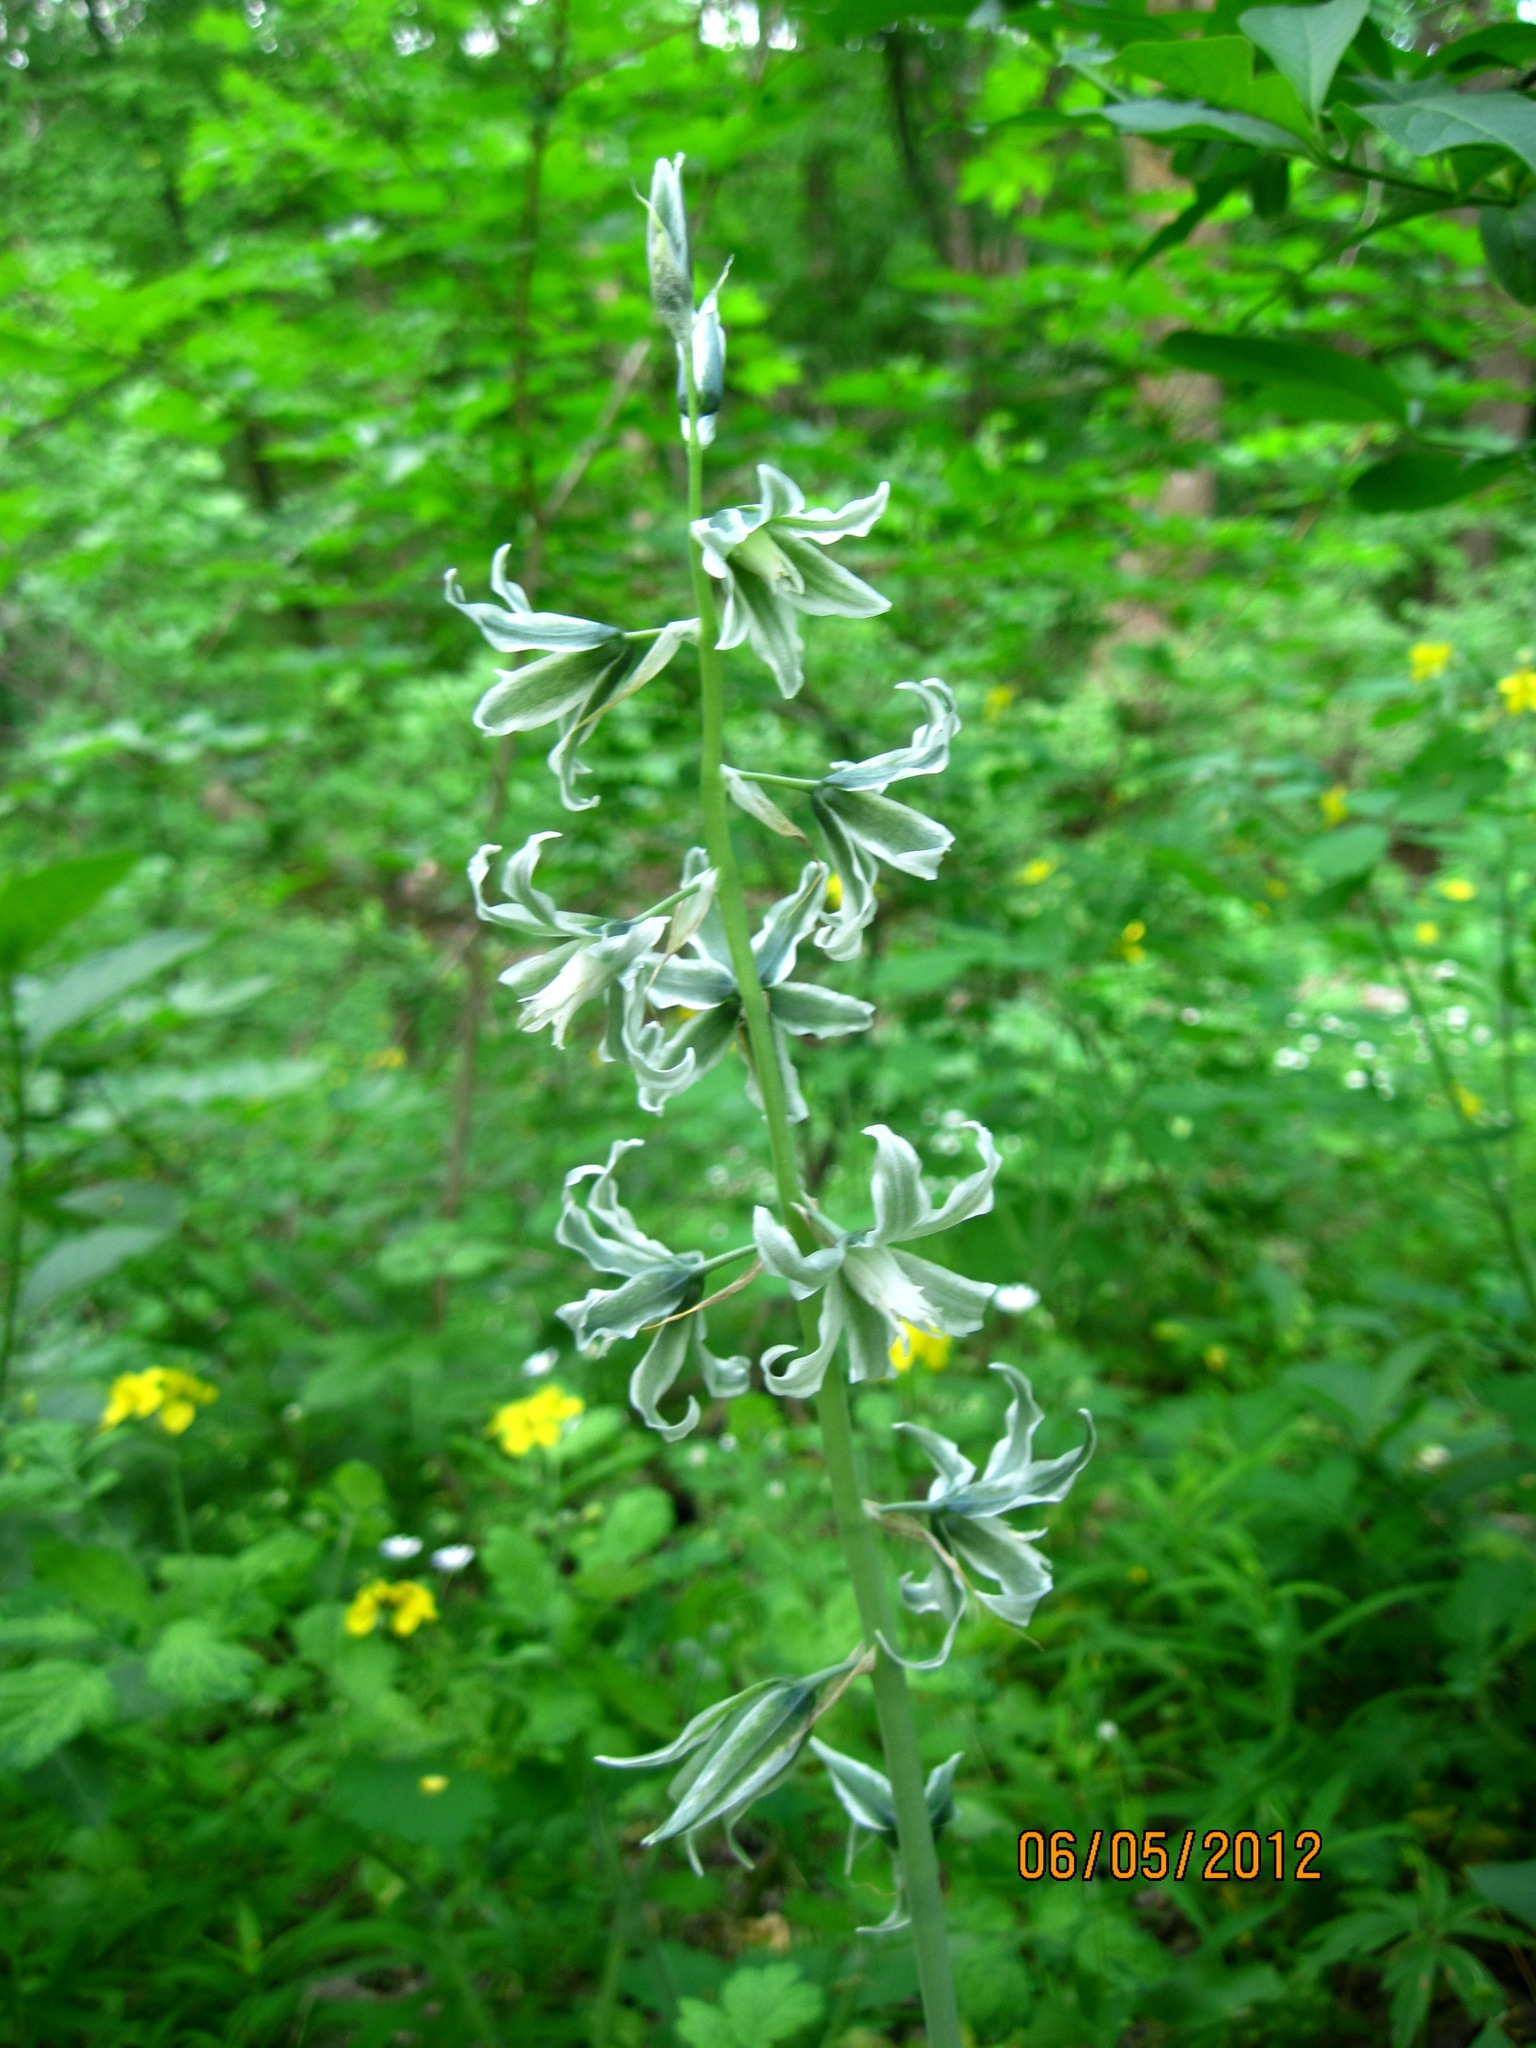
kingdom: Plantae
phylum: Tracheophyta
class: Liliopsida
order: Asparagales
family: Asparagaceae
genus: Ornithogalum
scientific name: Ornithogalum boucheanum
